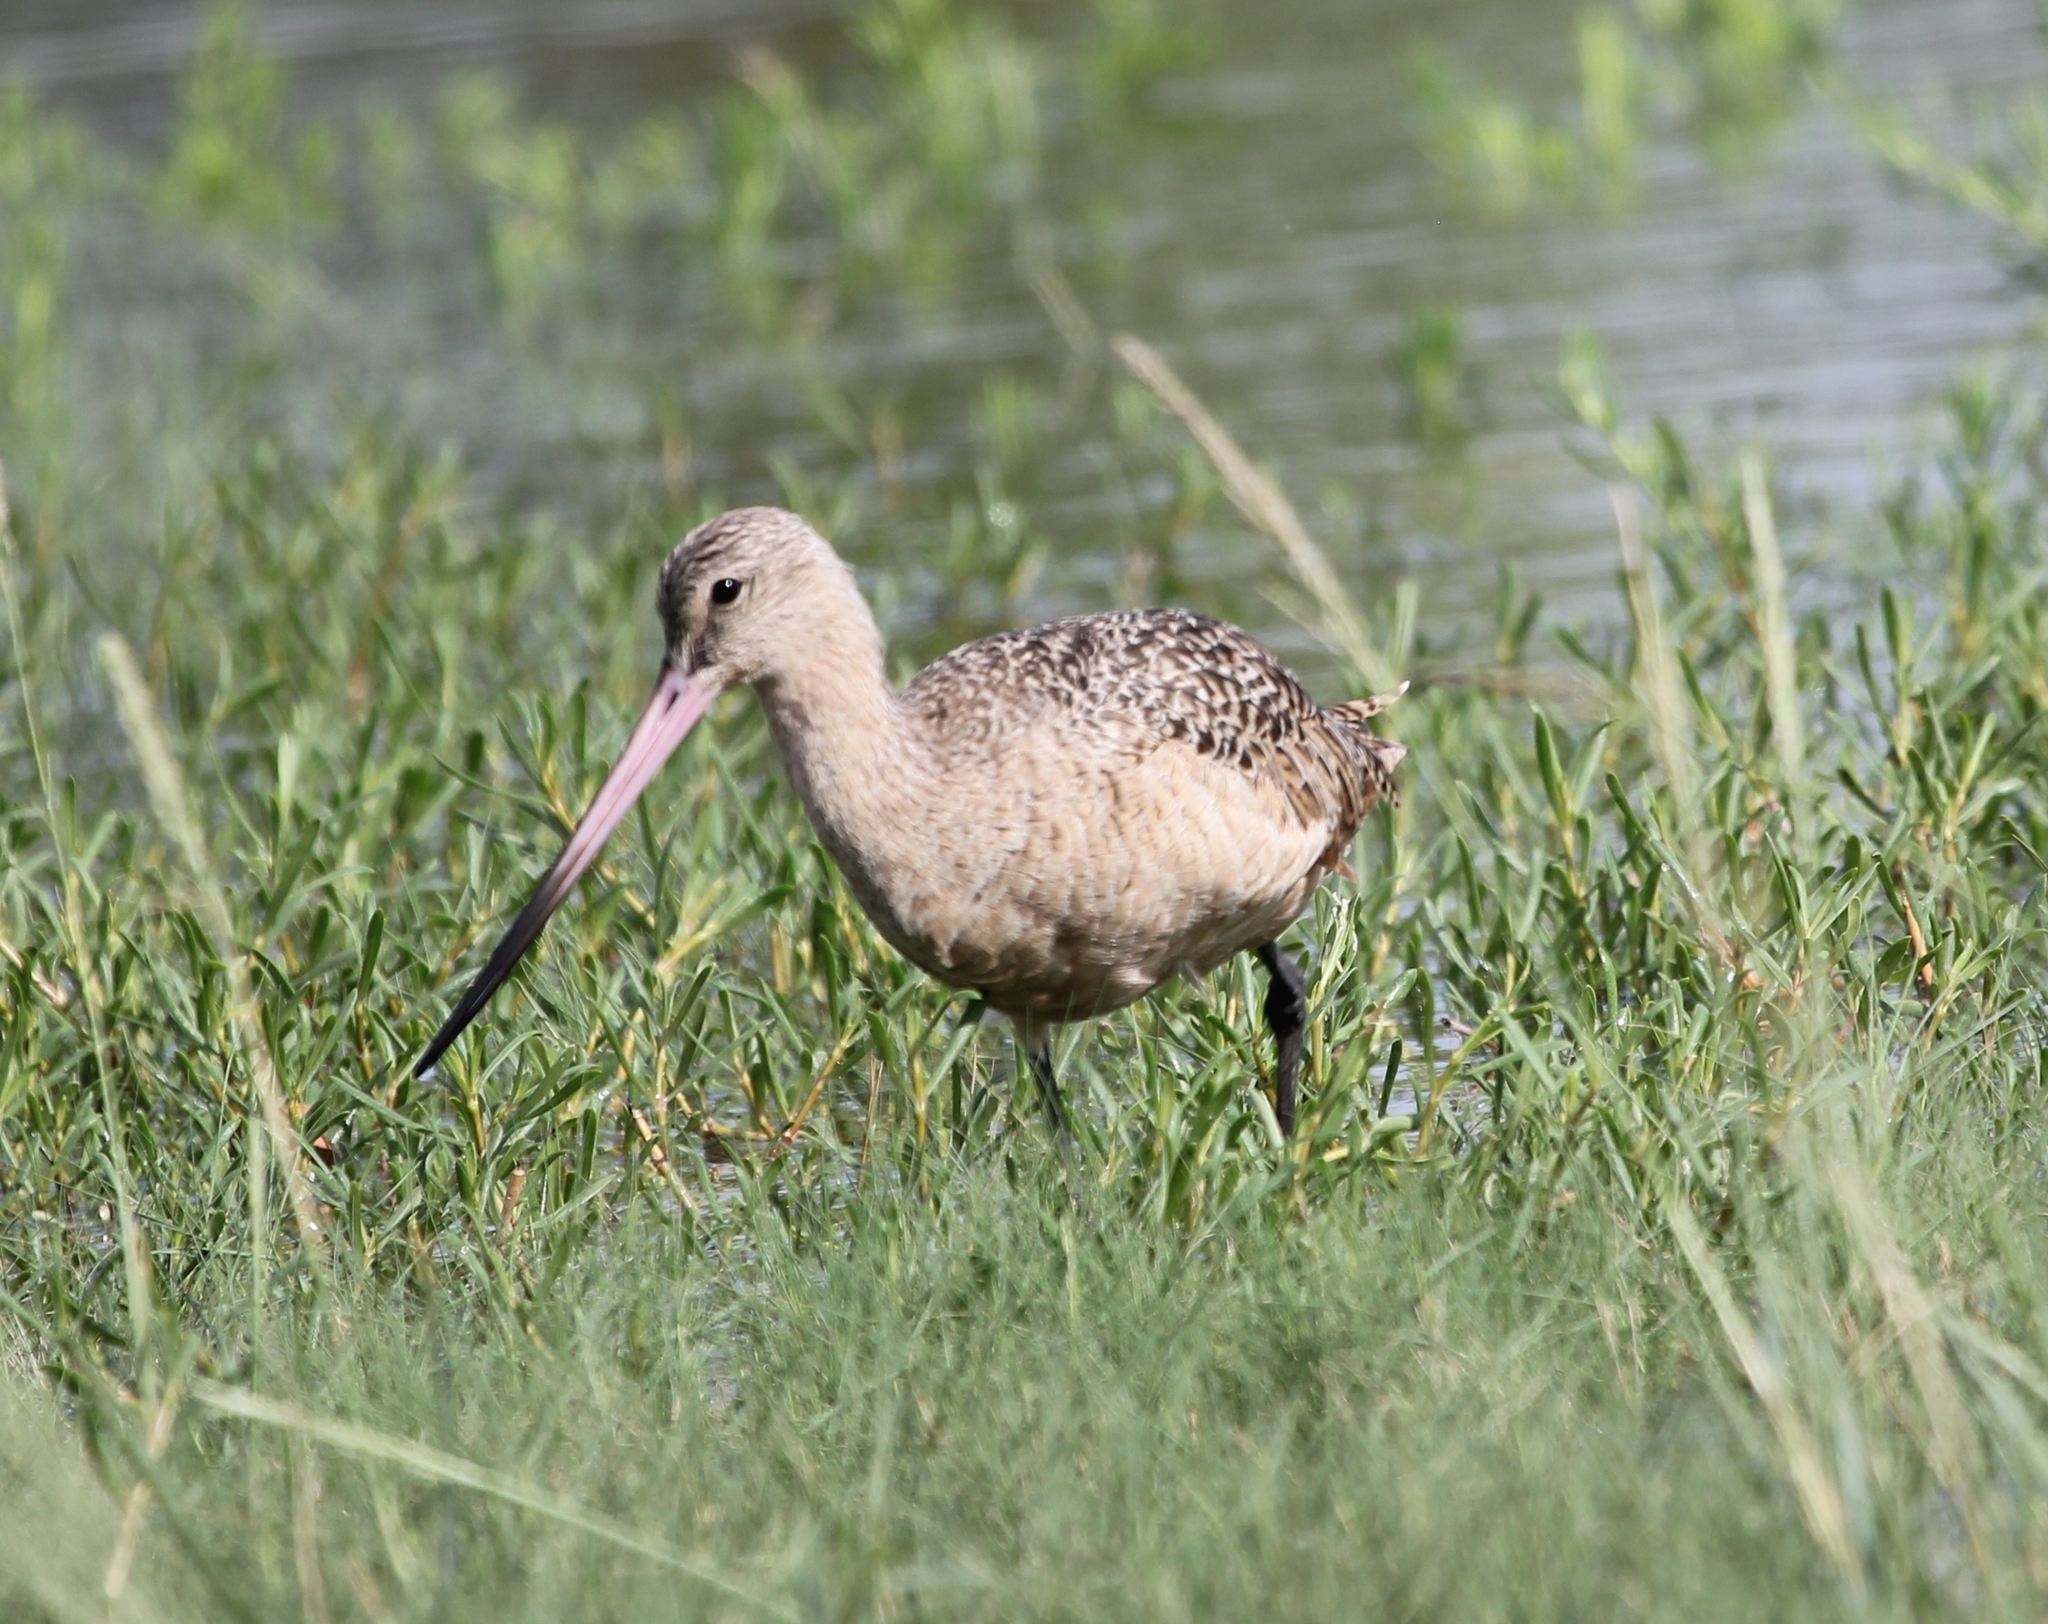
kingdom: Animalia
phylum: Chordata
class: Aves
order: Charadriiformes
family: Scolopacidae
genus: Limosa
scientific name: Limosa fedoa
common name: Marbled godwit
